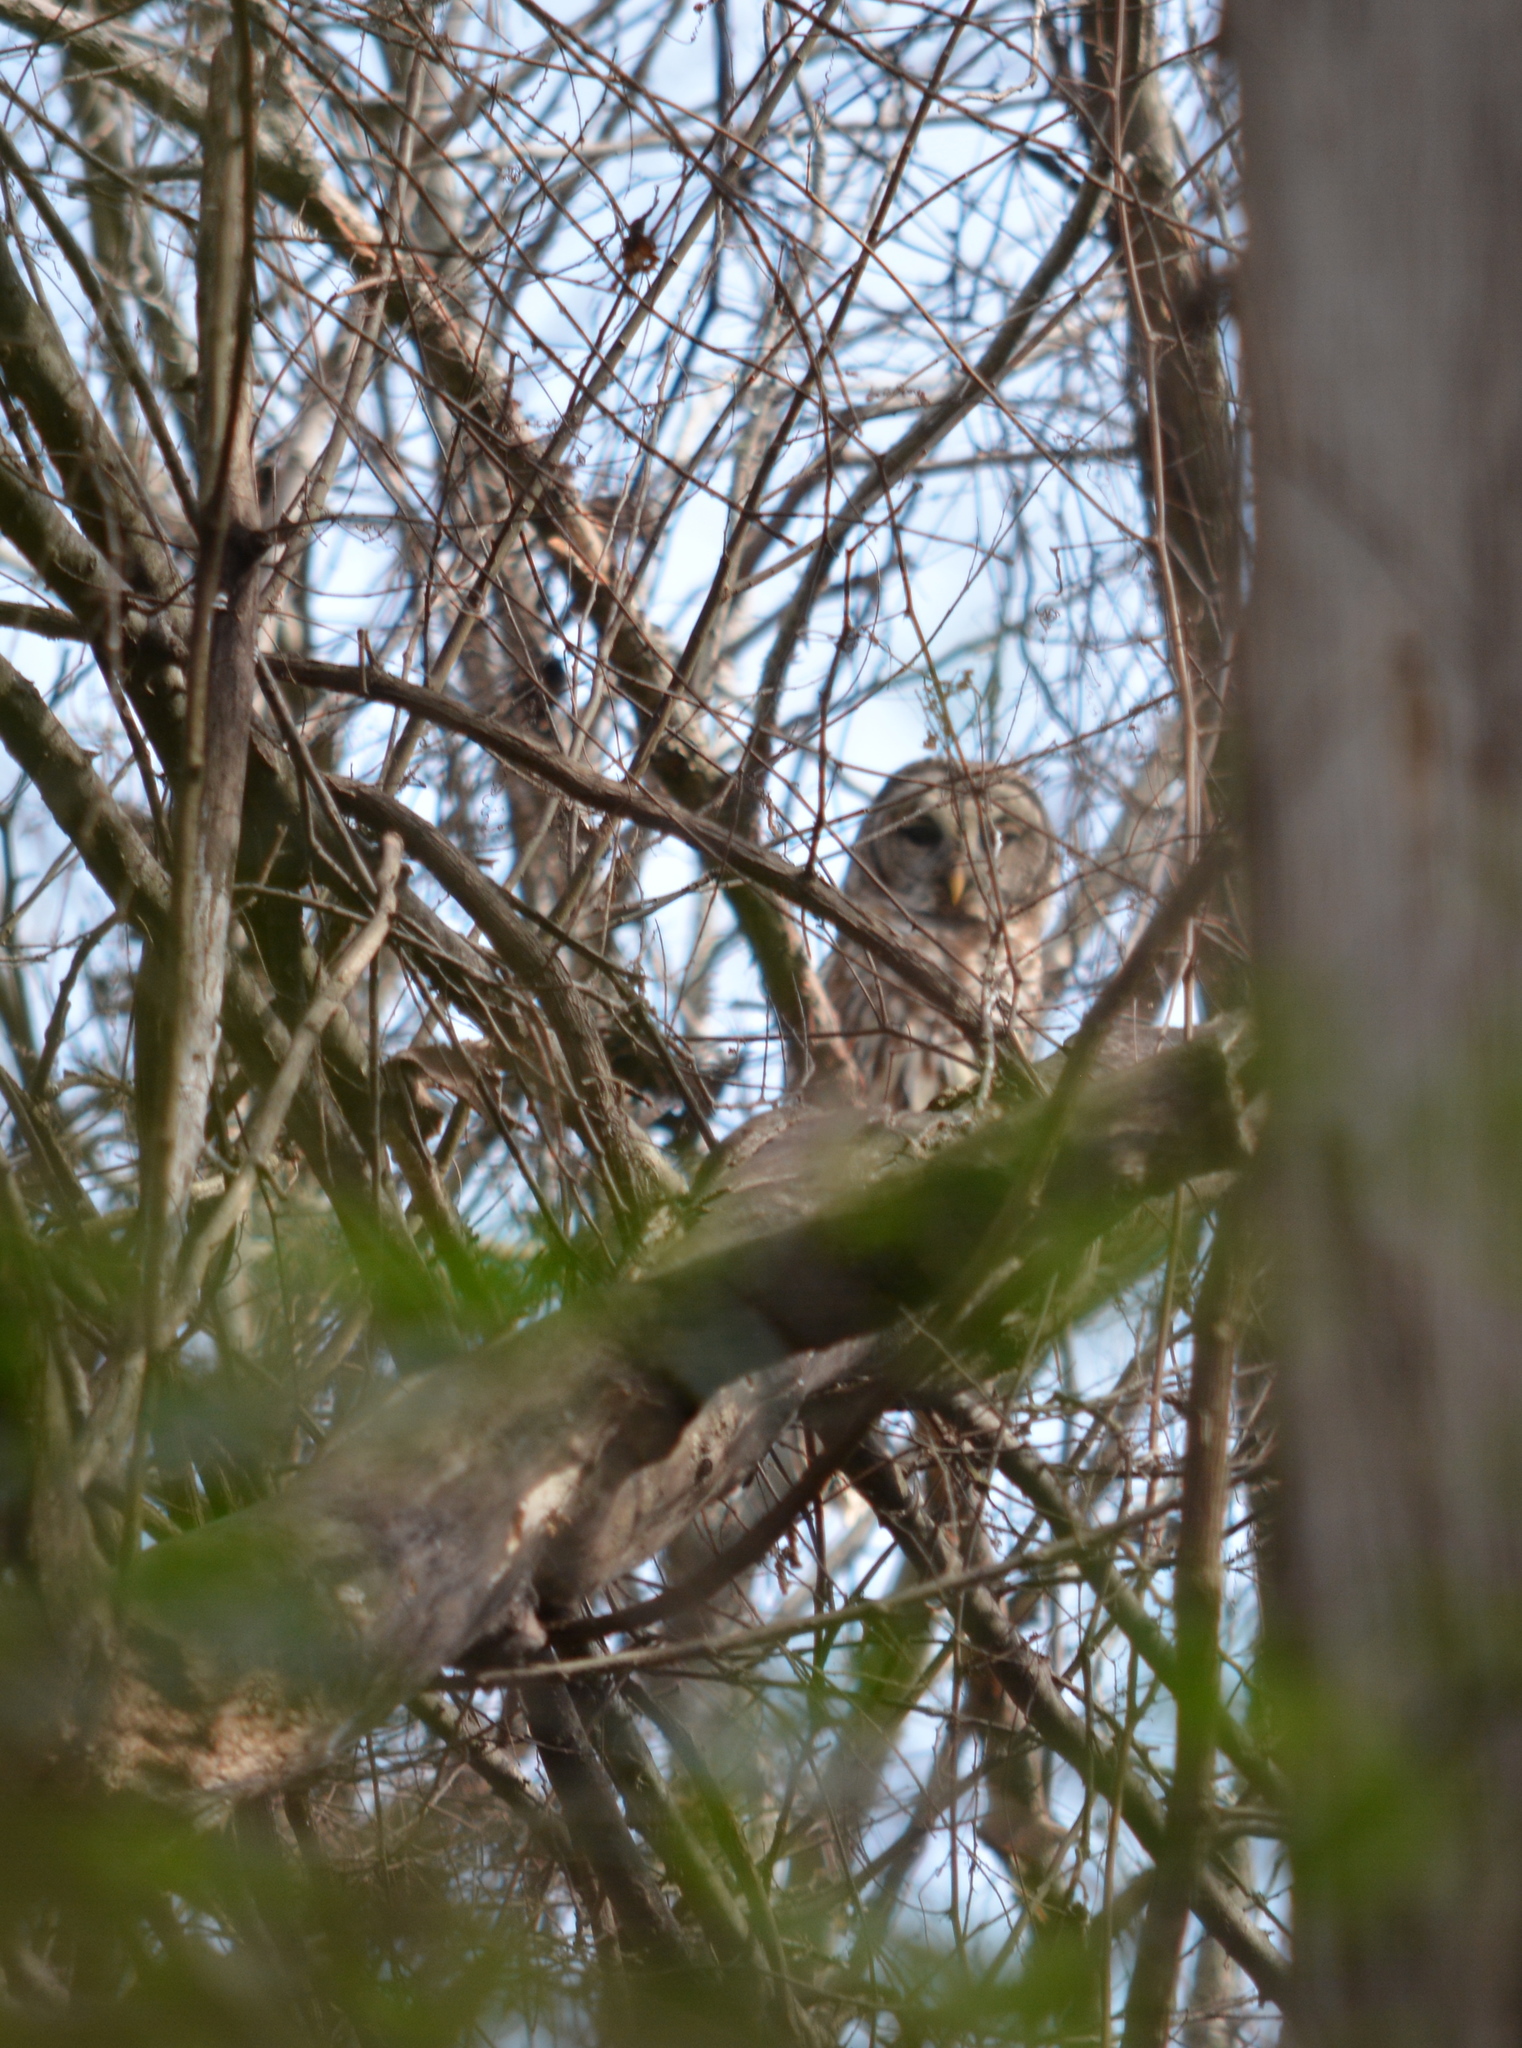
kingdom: Animalia
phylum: Chordata
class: Aves
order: Strigiformes
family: Strigidae
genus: Strix
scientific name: Strix varia
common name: Barred owl
